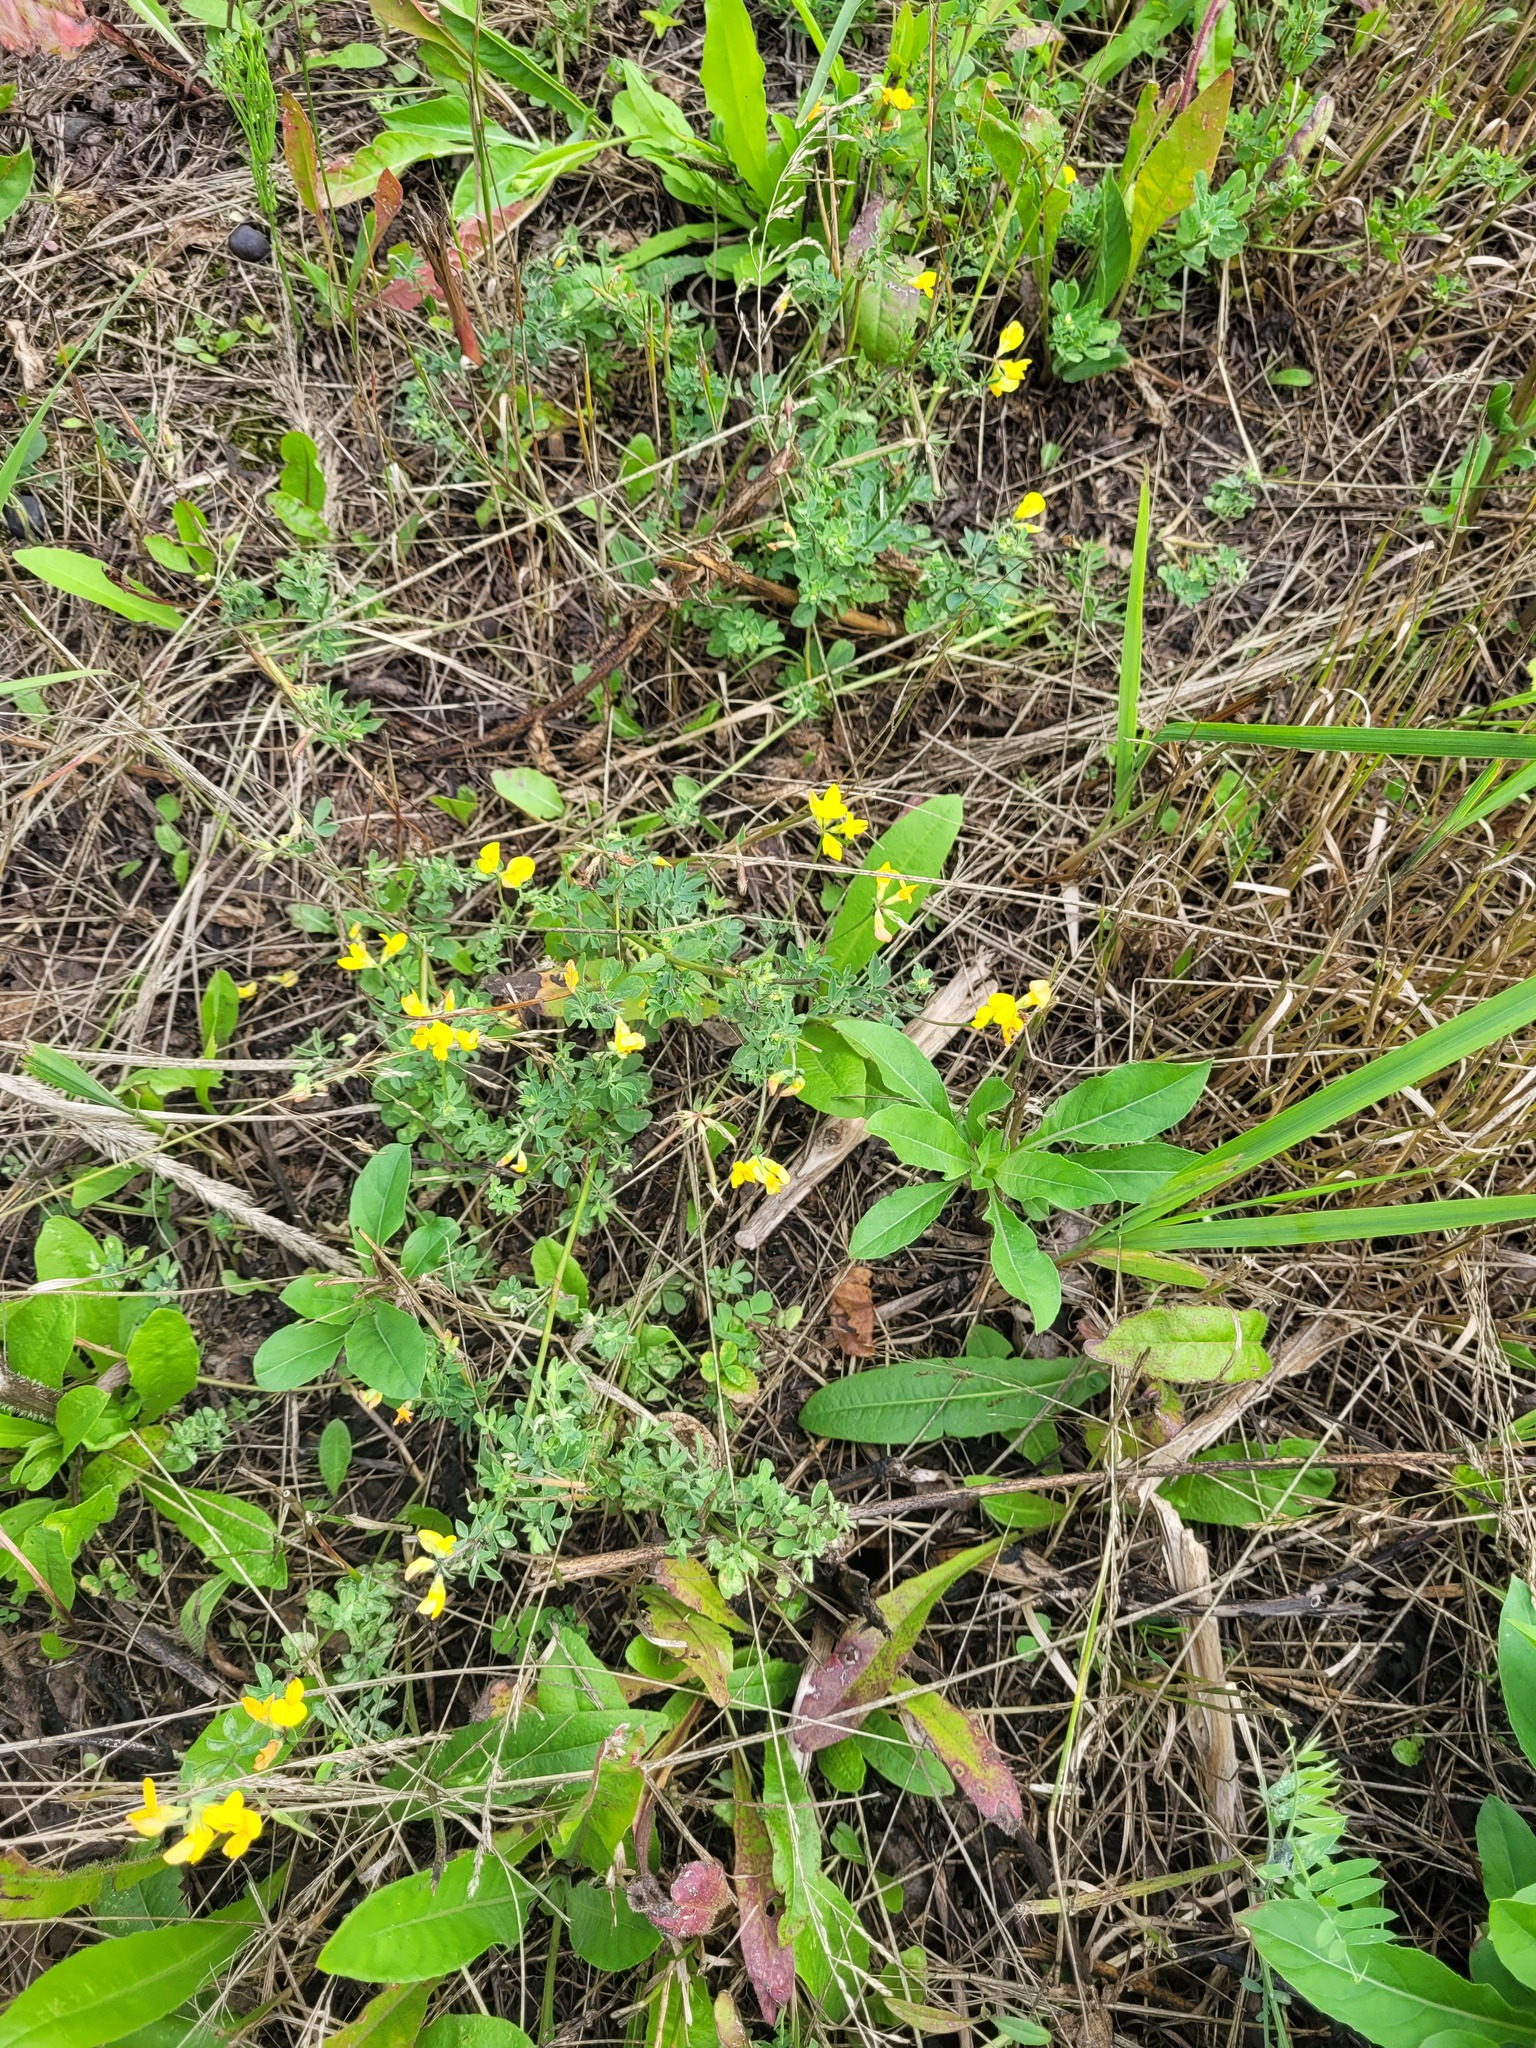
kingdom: Plantae
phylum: Tracheophyta
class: Magnoliopsida
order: Fabales
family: Fabaceae
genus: Lotus
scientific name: Lotus corniculatus
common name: Common bird's-foot-trefoil
